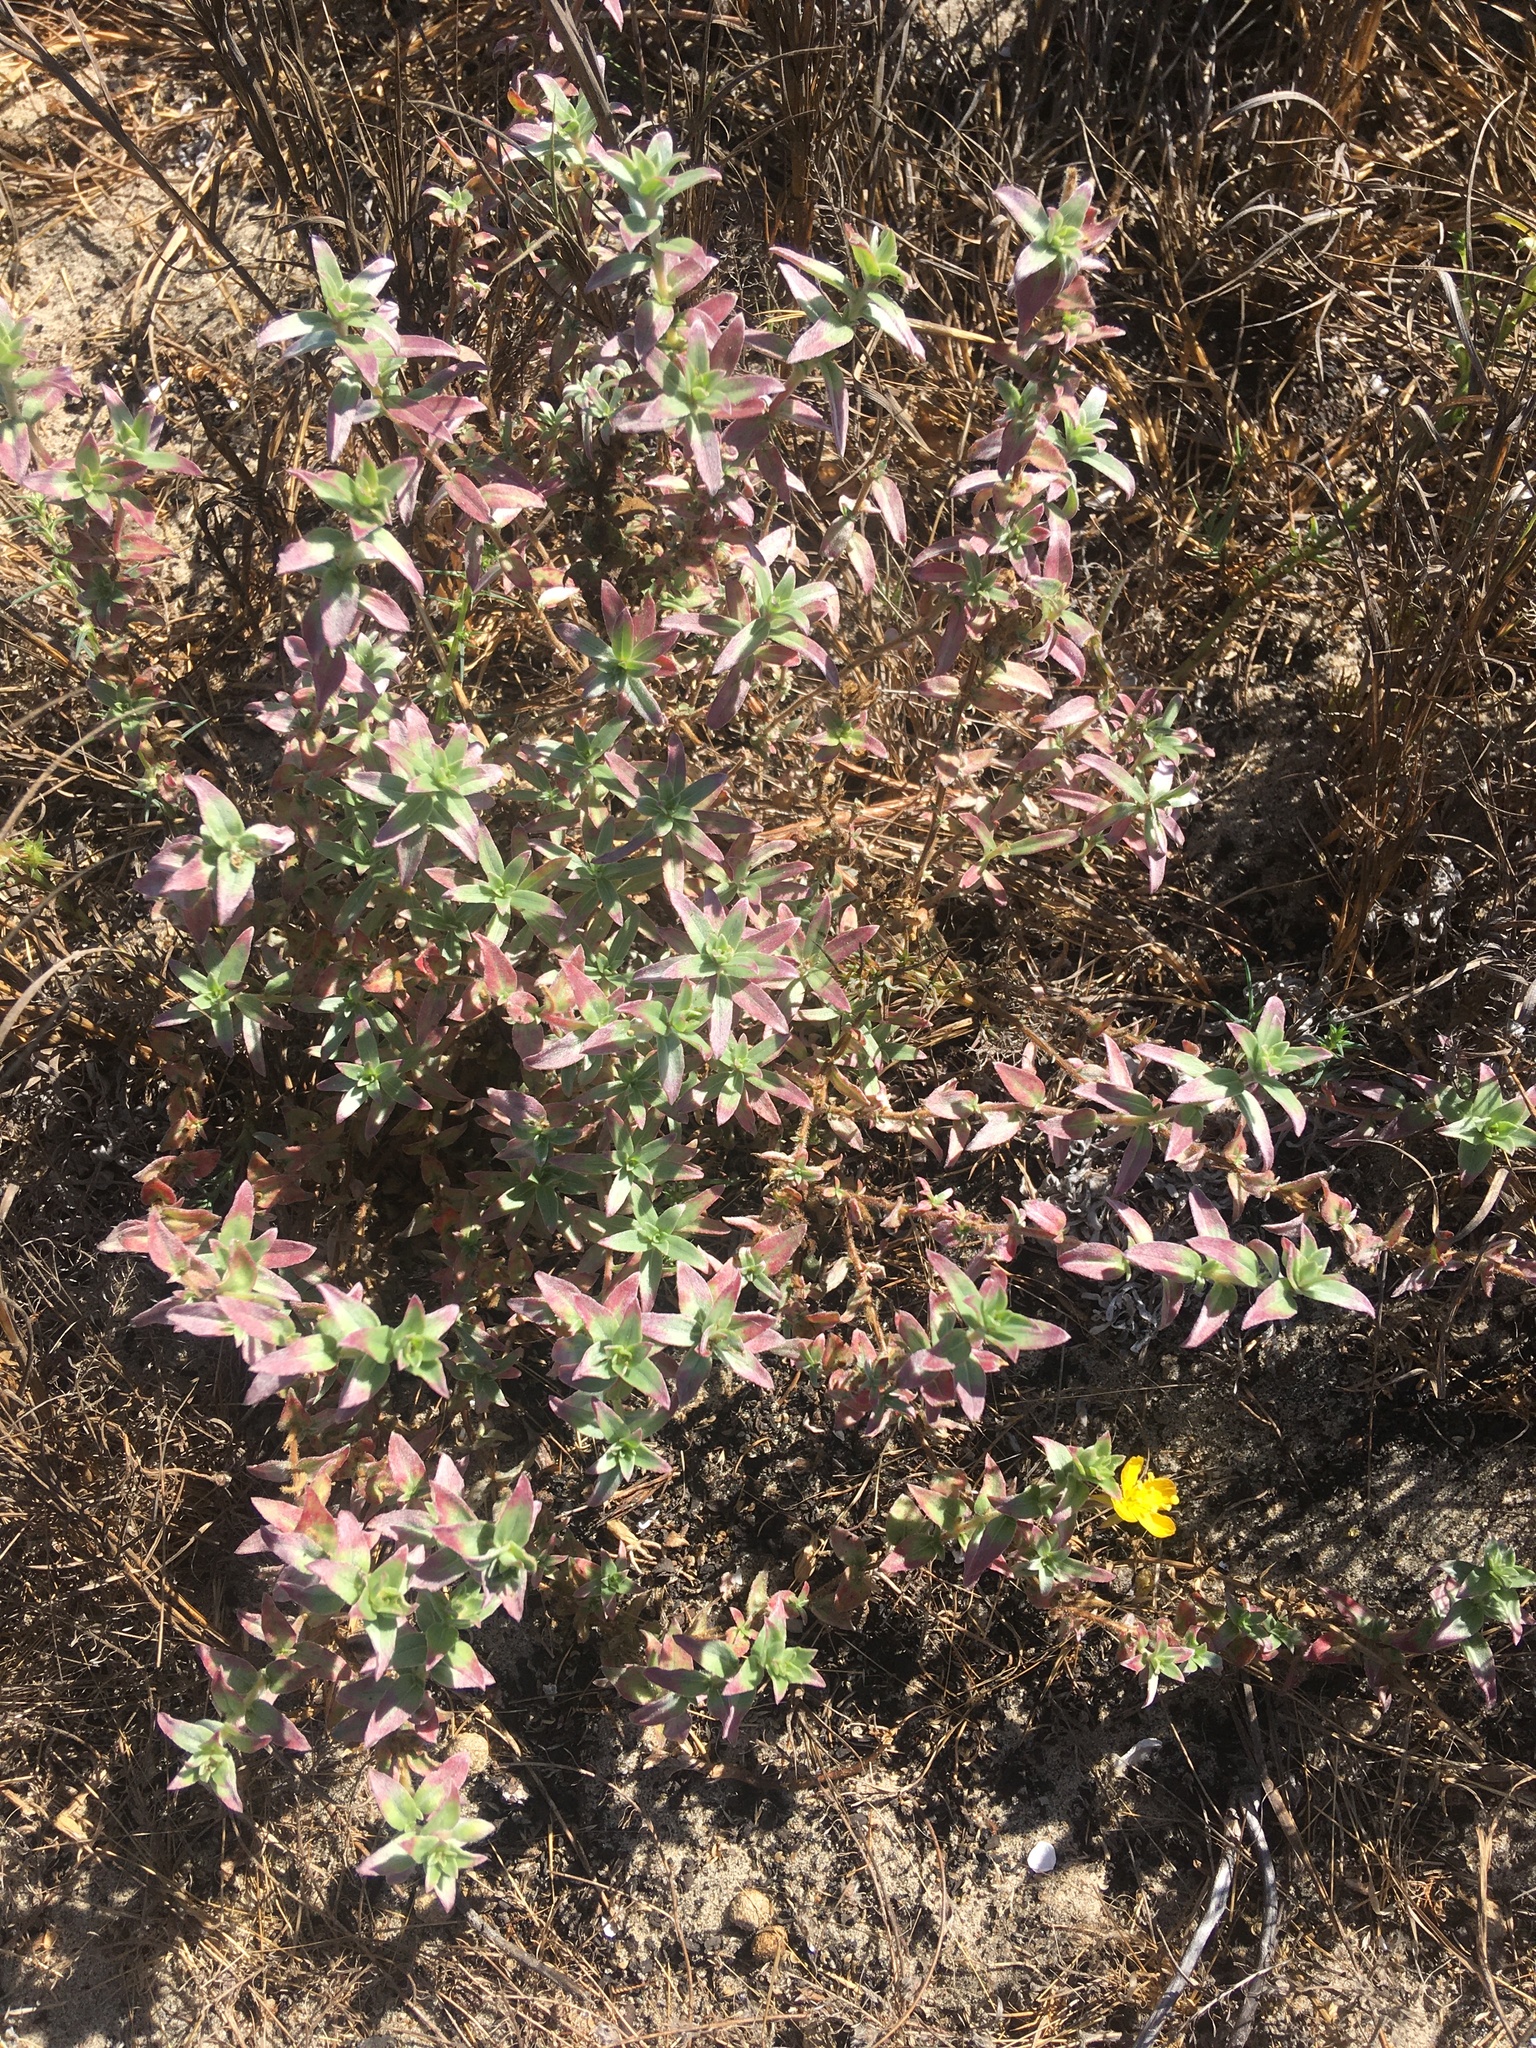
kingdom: Plantae
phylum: Tracheophyta
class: Magnoliopsida
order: Myrtales
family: Onagraceae
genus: Camissoniopsis
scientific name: Camissoniopsis cheiranthifolia
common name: Beach suncup
